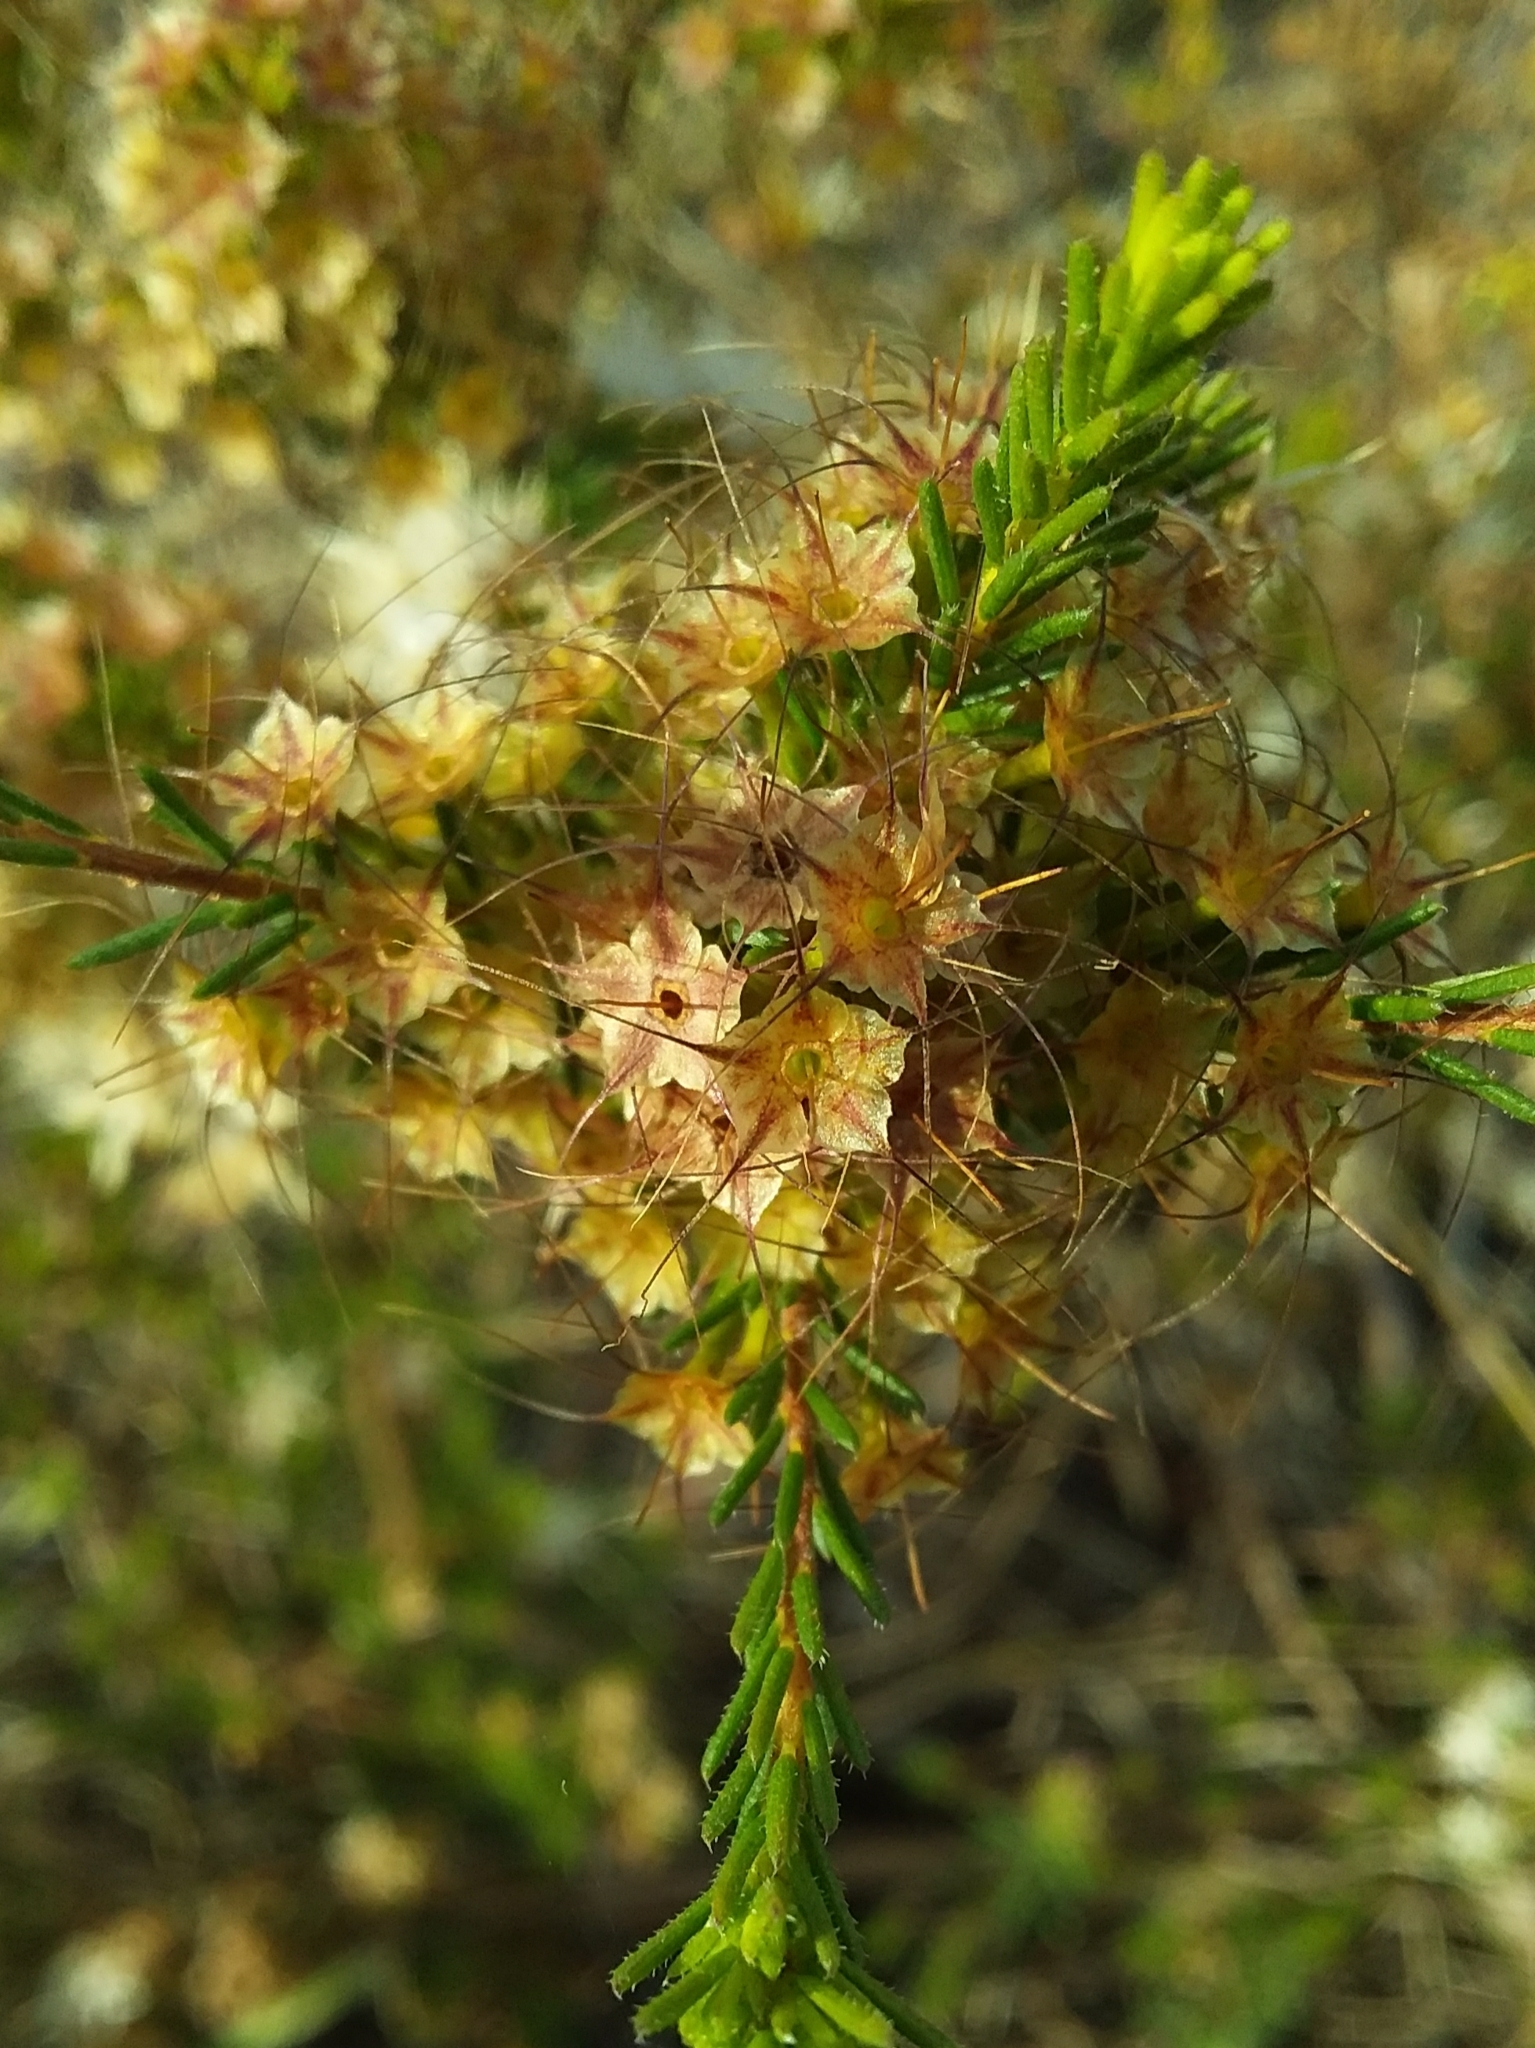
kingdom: Plantae
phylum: Tracheophyta
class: Magnoliopsida
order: Myrtales
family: Myrtaceae
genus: Calytrix
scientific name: Calytrix tetragona
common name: Common fringe myrtle
